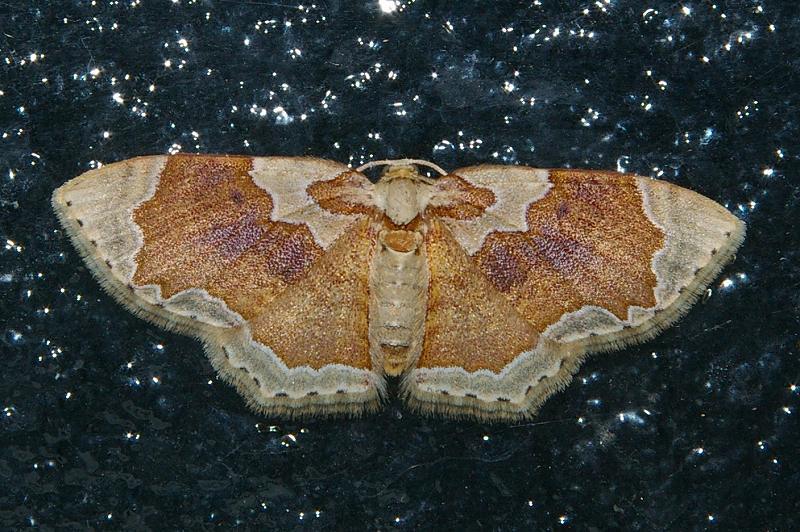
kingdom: Animalia
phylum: Arthropoda
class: Insecta
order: Lepidoptera
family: Geometridae
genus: Palpoctenidia
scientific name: Palpoctenidia phoenicosoma
